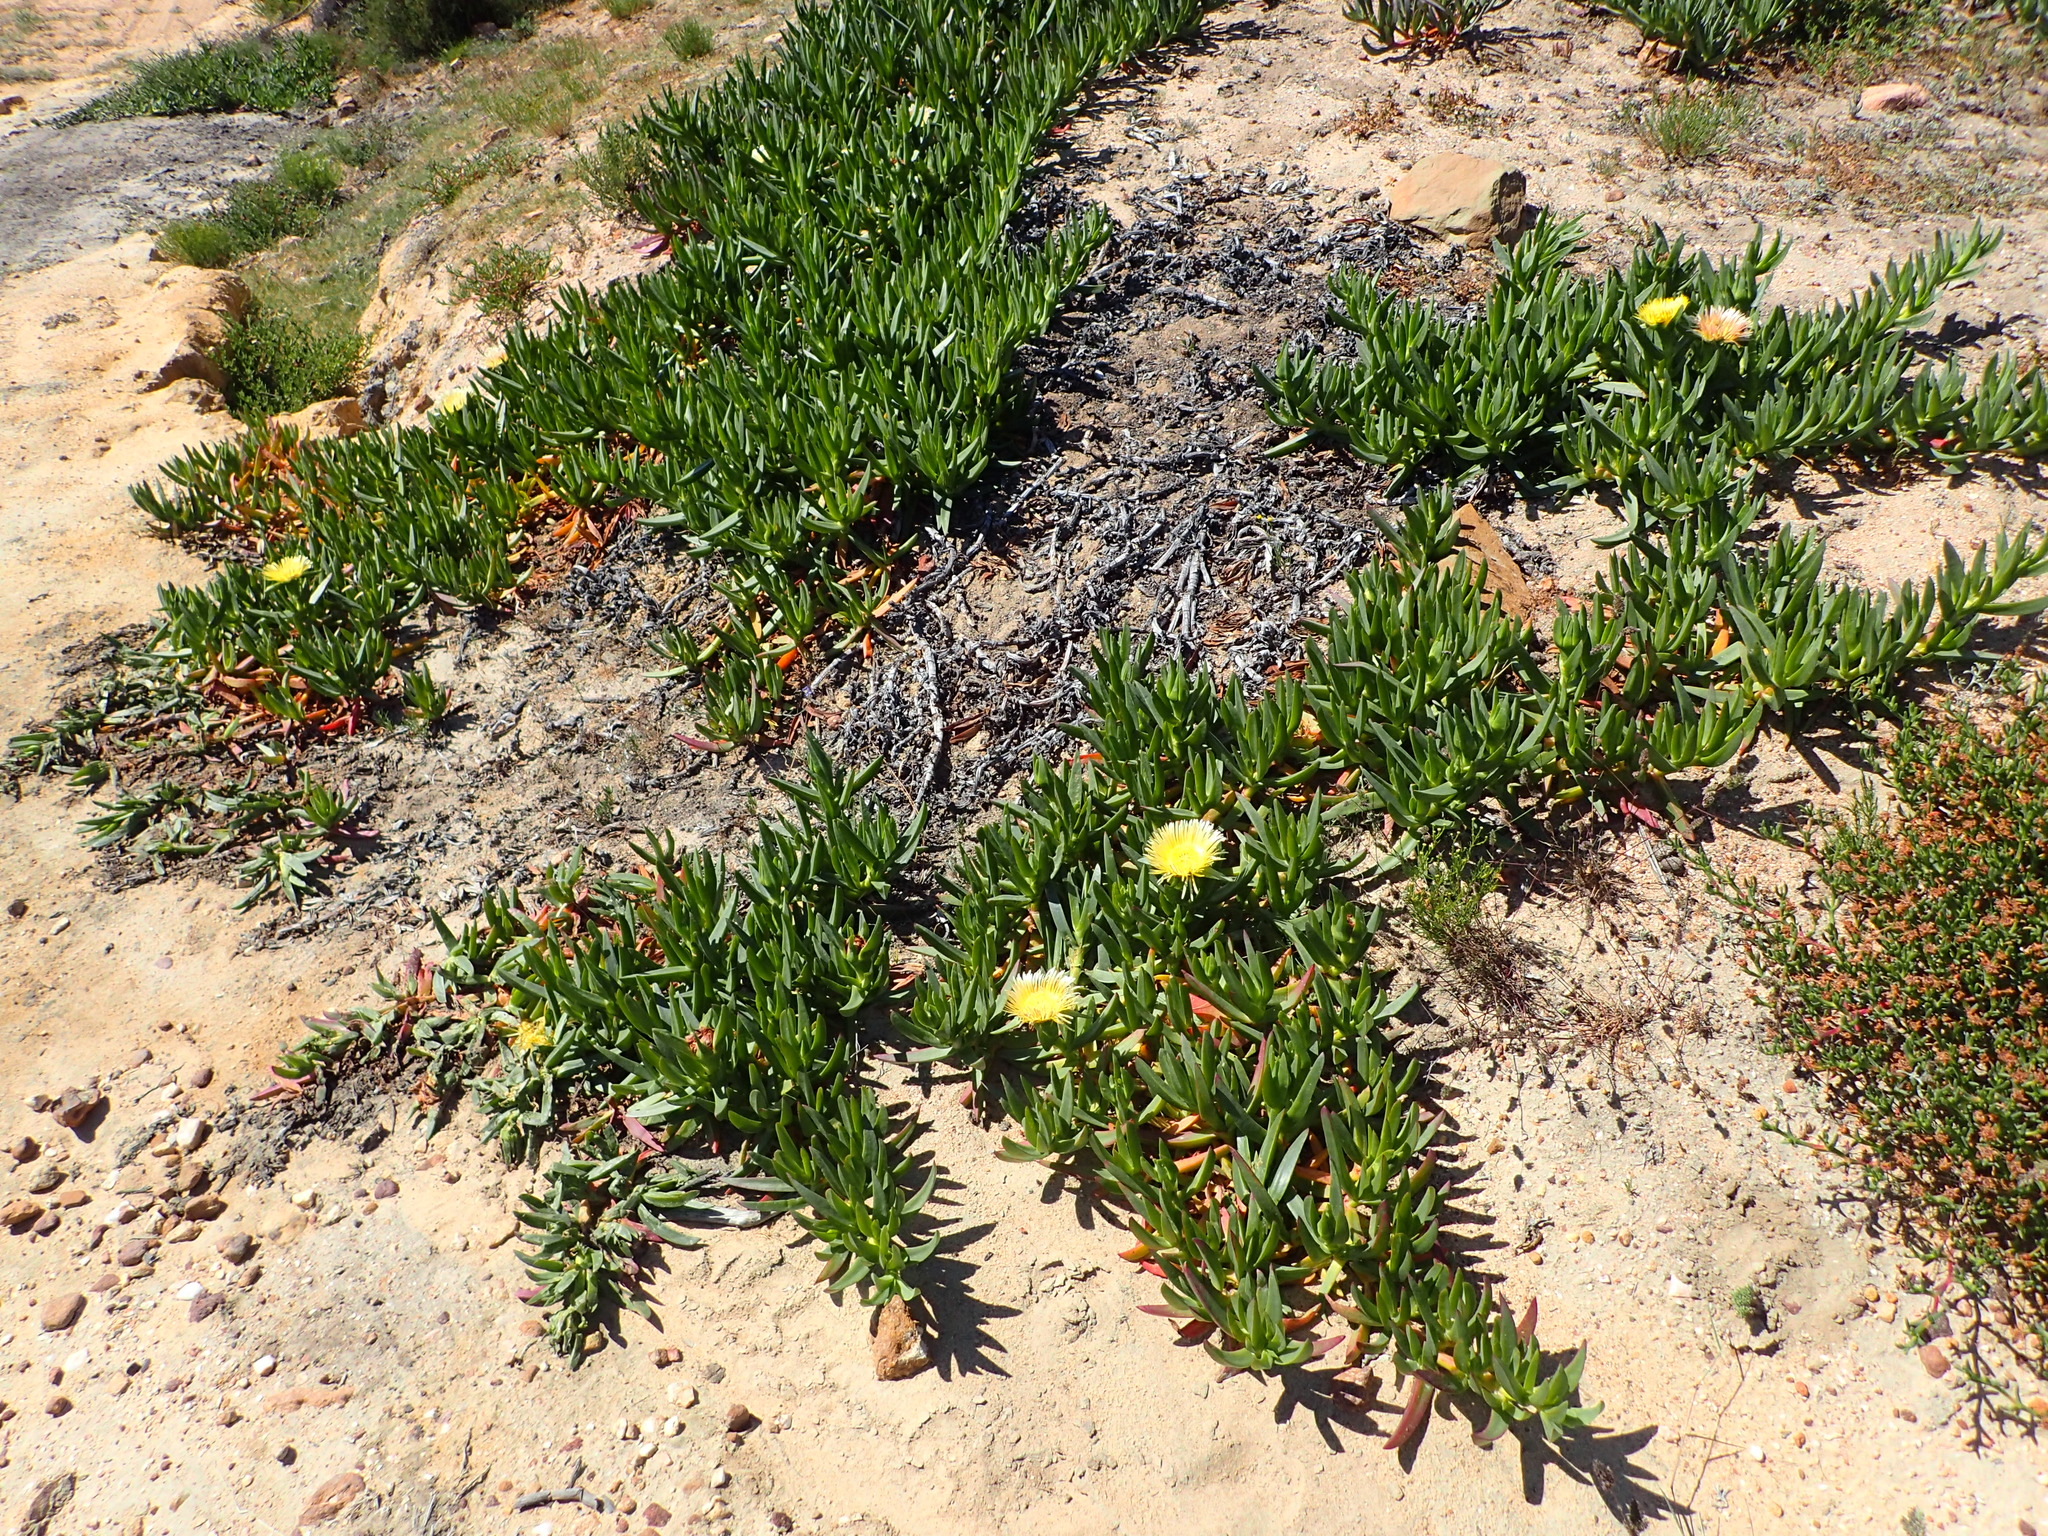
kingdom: Plantae
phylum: Tracheophyta
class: Magnoliopsida
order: Caryophyllales
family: Aizoaceae
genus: Carpobrotus
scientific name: Carpobrotus edulis
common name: Hottentot-fig
